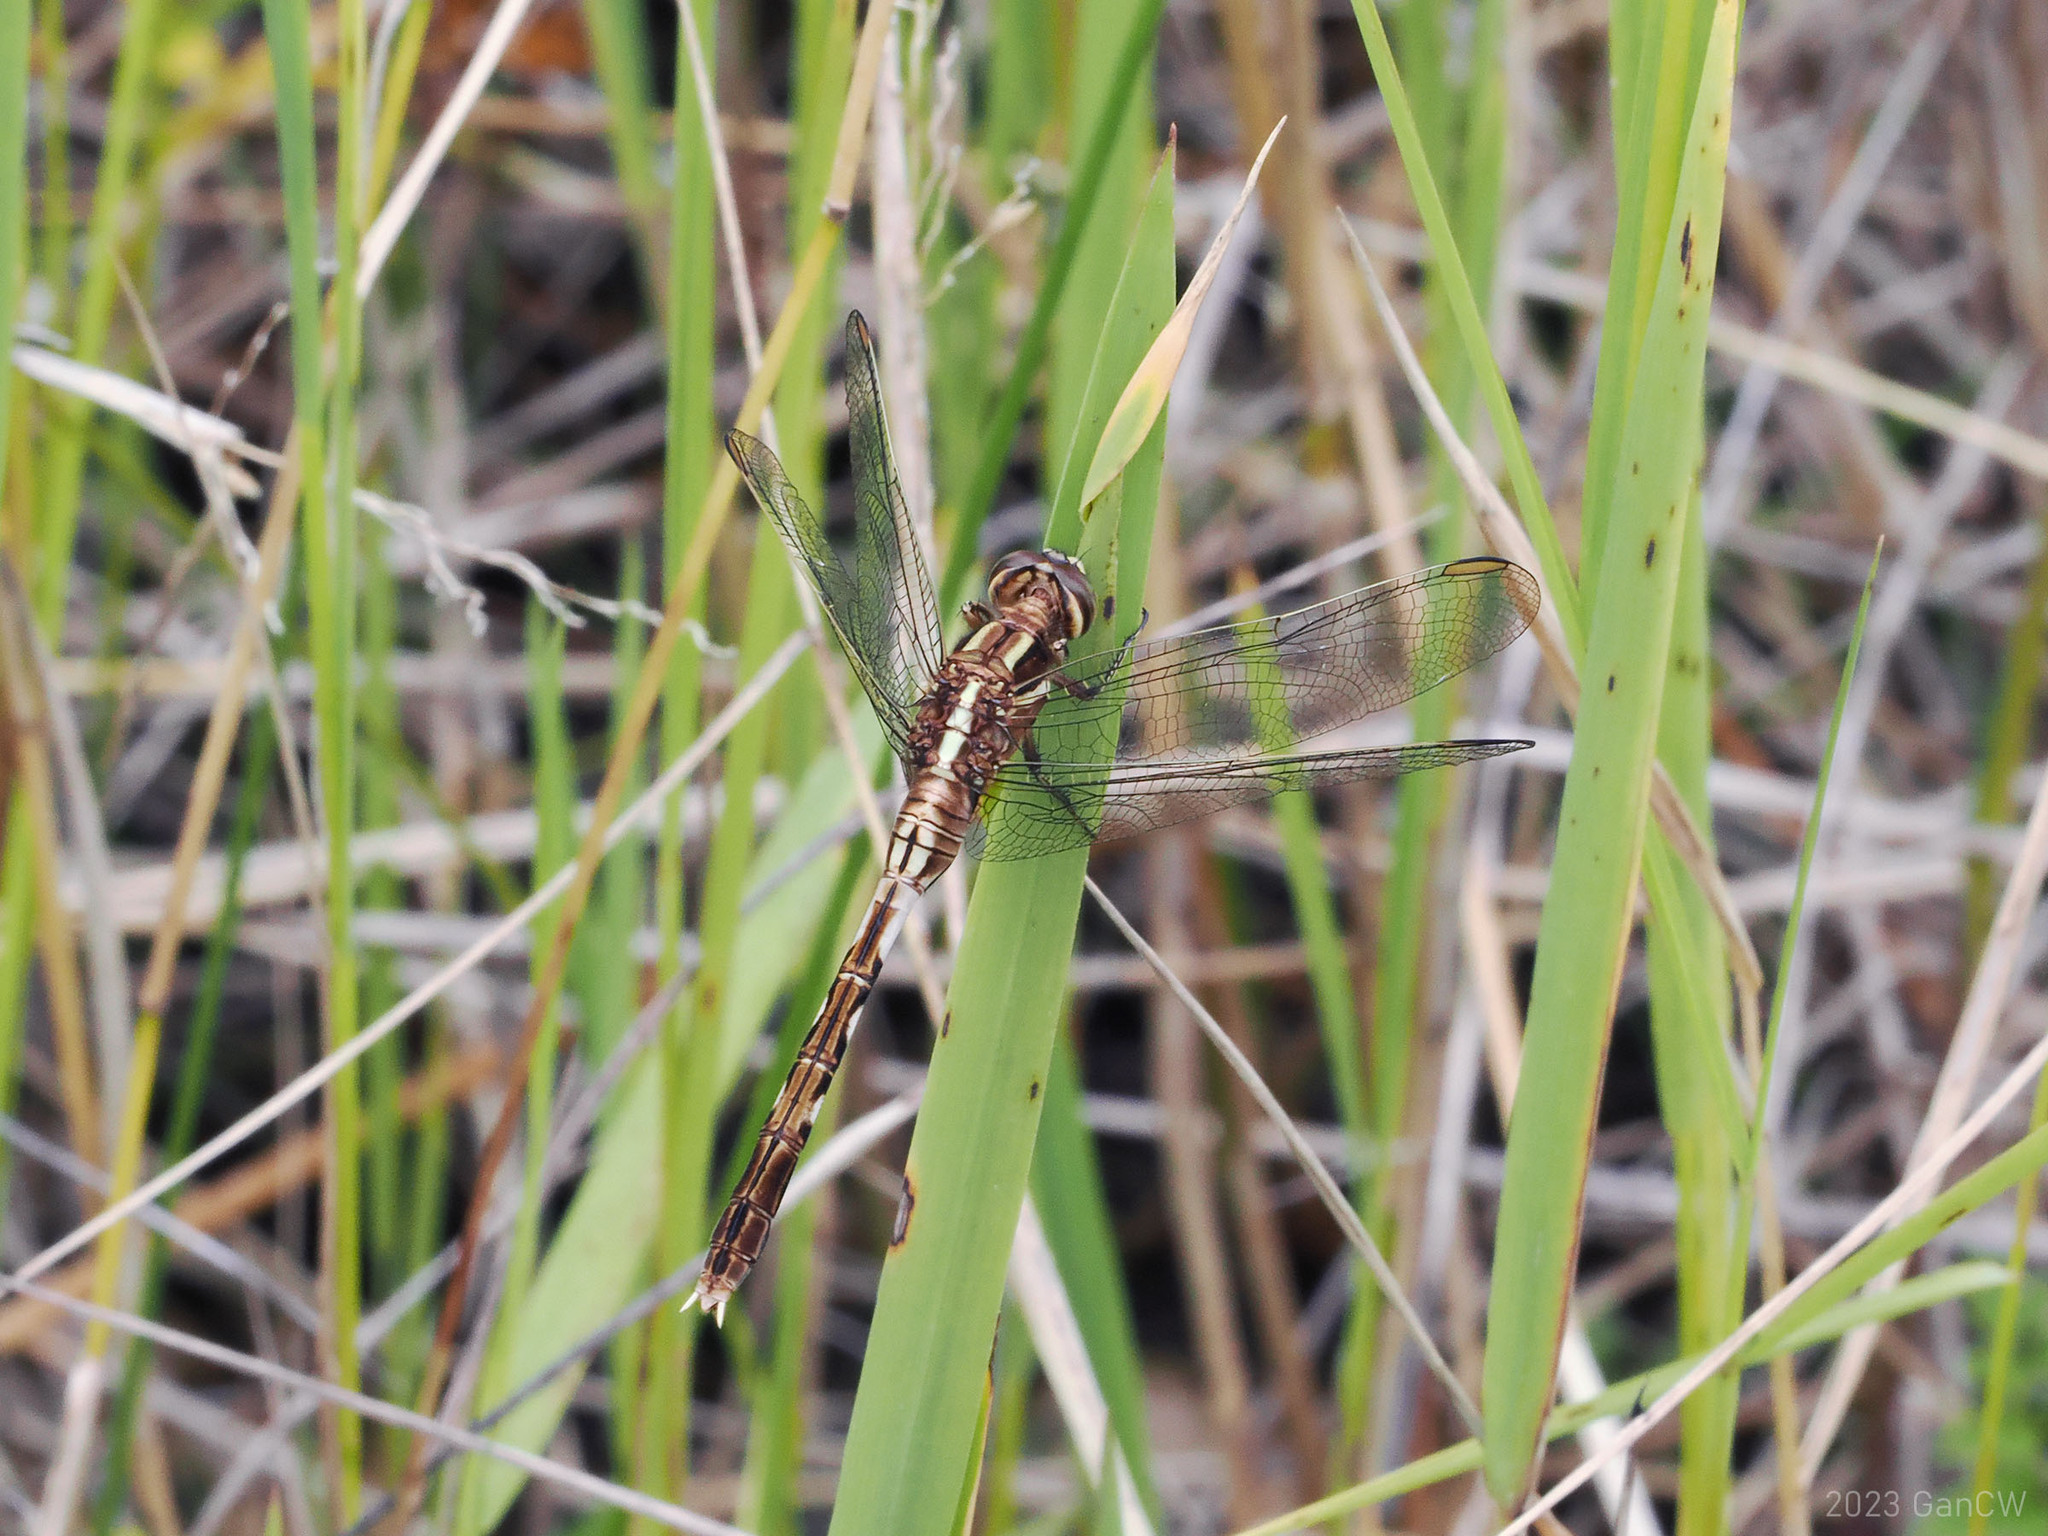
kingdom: Animalia
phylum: Arthropoda
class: Insecta
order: Odonata
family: Libellulidae
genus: Orthetrum
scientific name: Orthetrum sabina
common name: Slender skimmer
